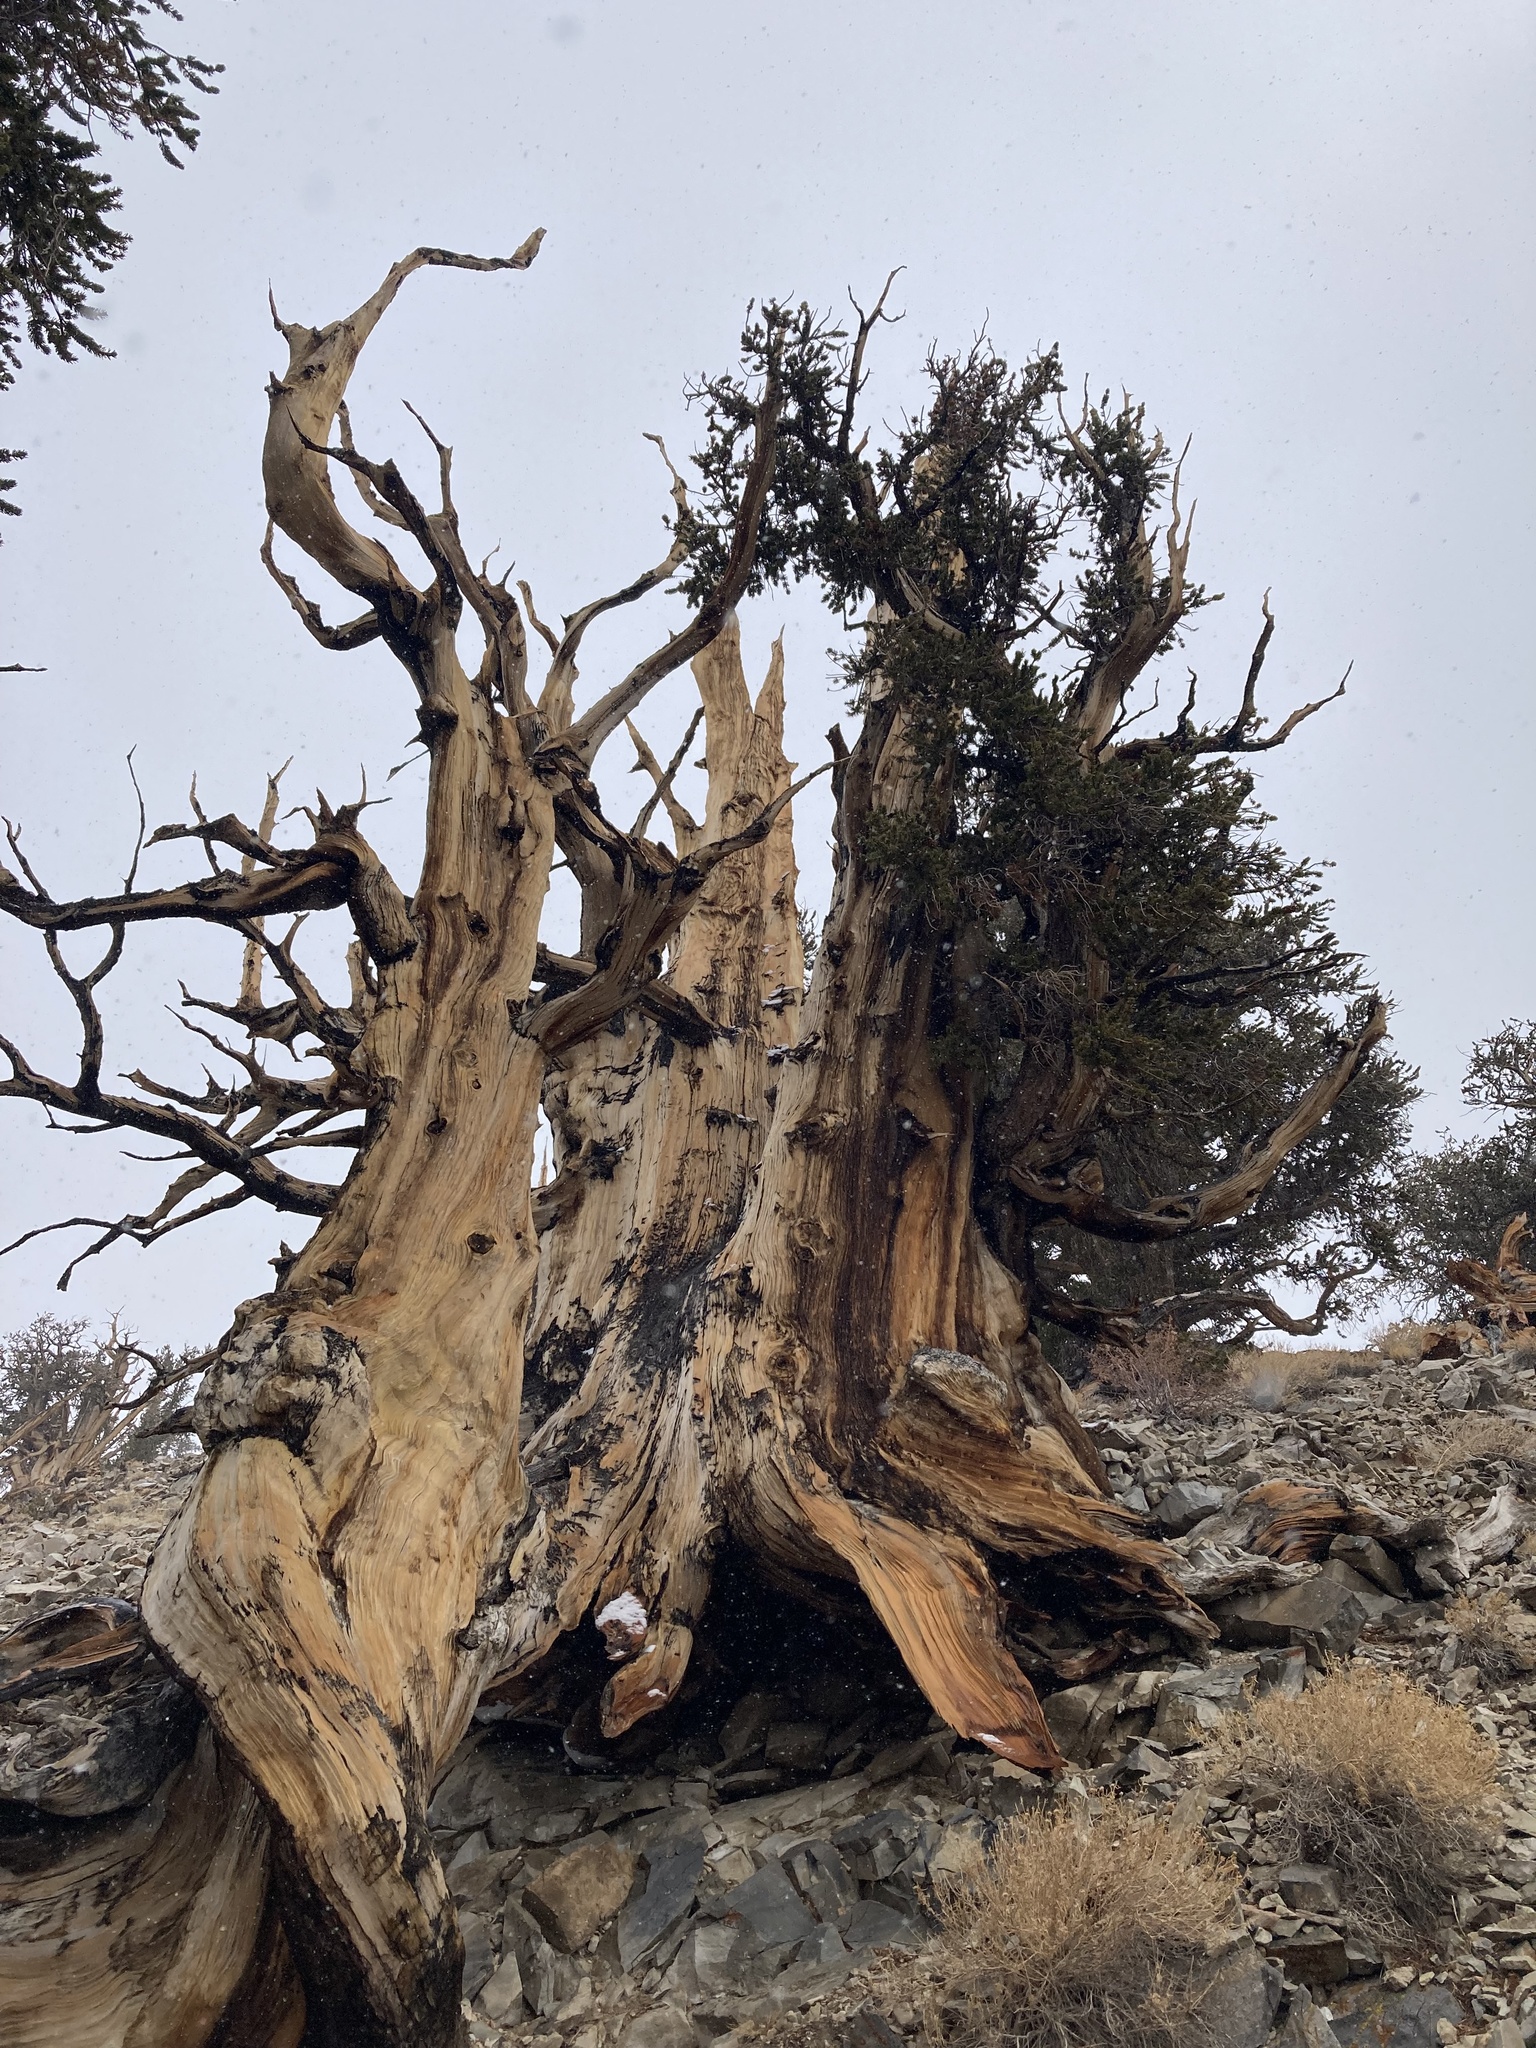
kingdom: Plantae
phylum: Tracheophyta
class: Pinopsida
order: Pinales
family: Pinaceae
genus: Pinus
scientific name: Pinus longaeva
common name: Intermountain bristlecone pine
